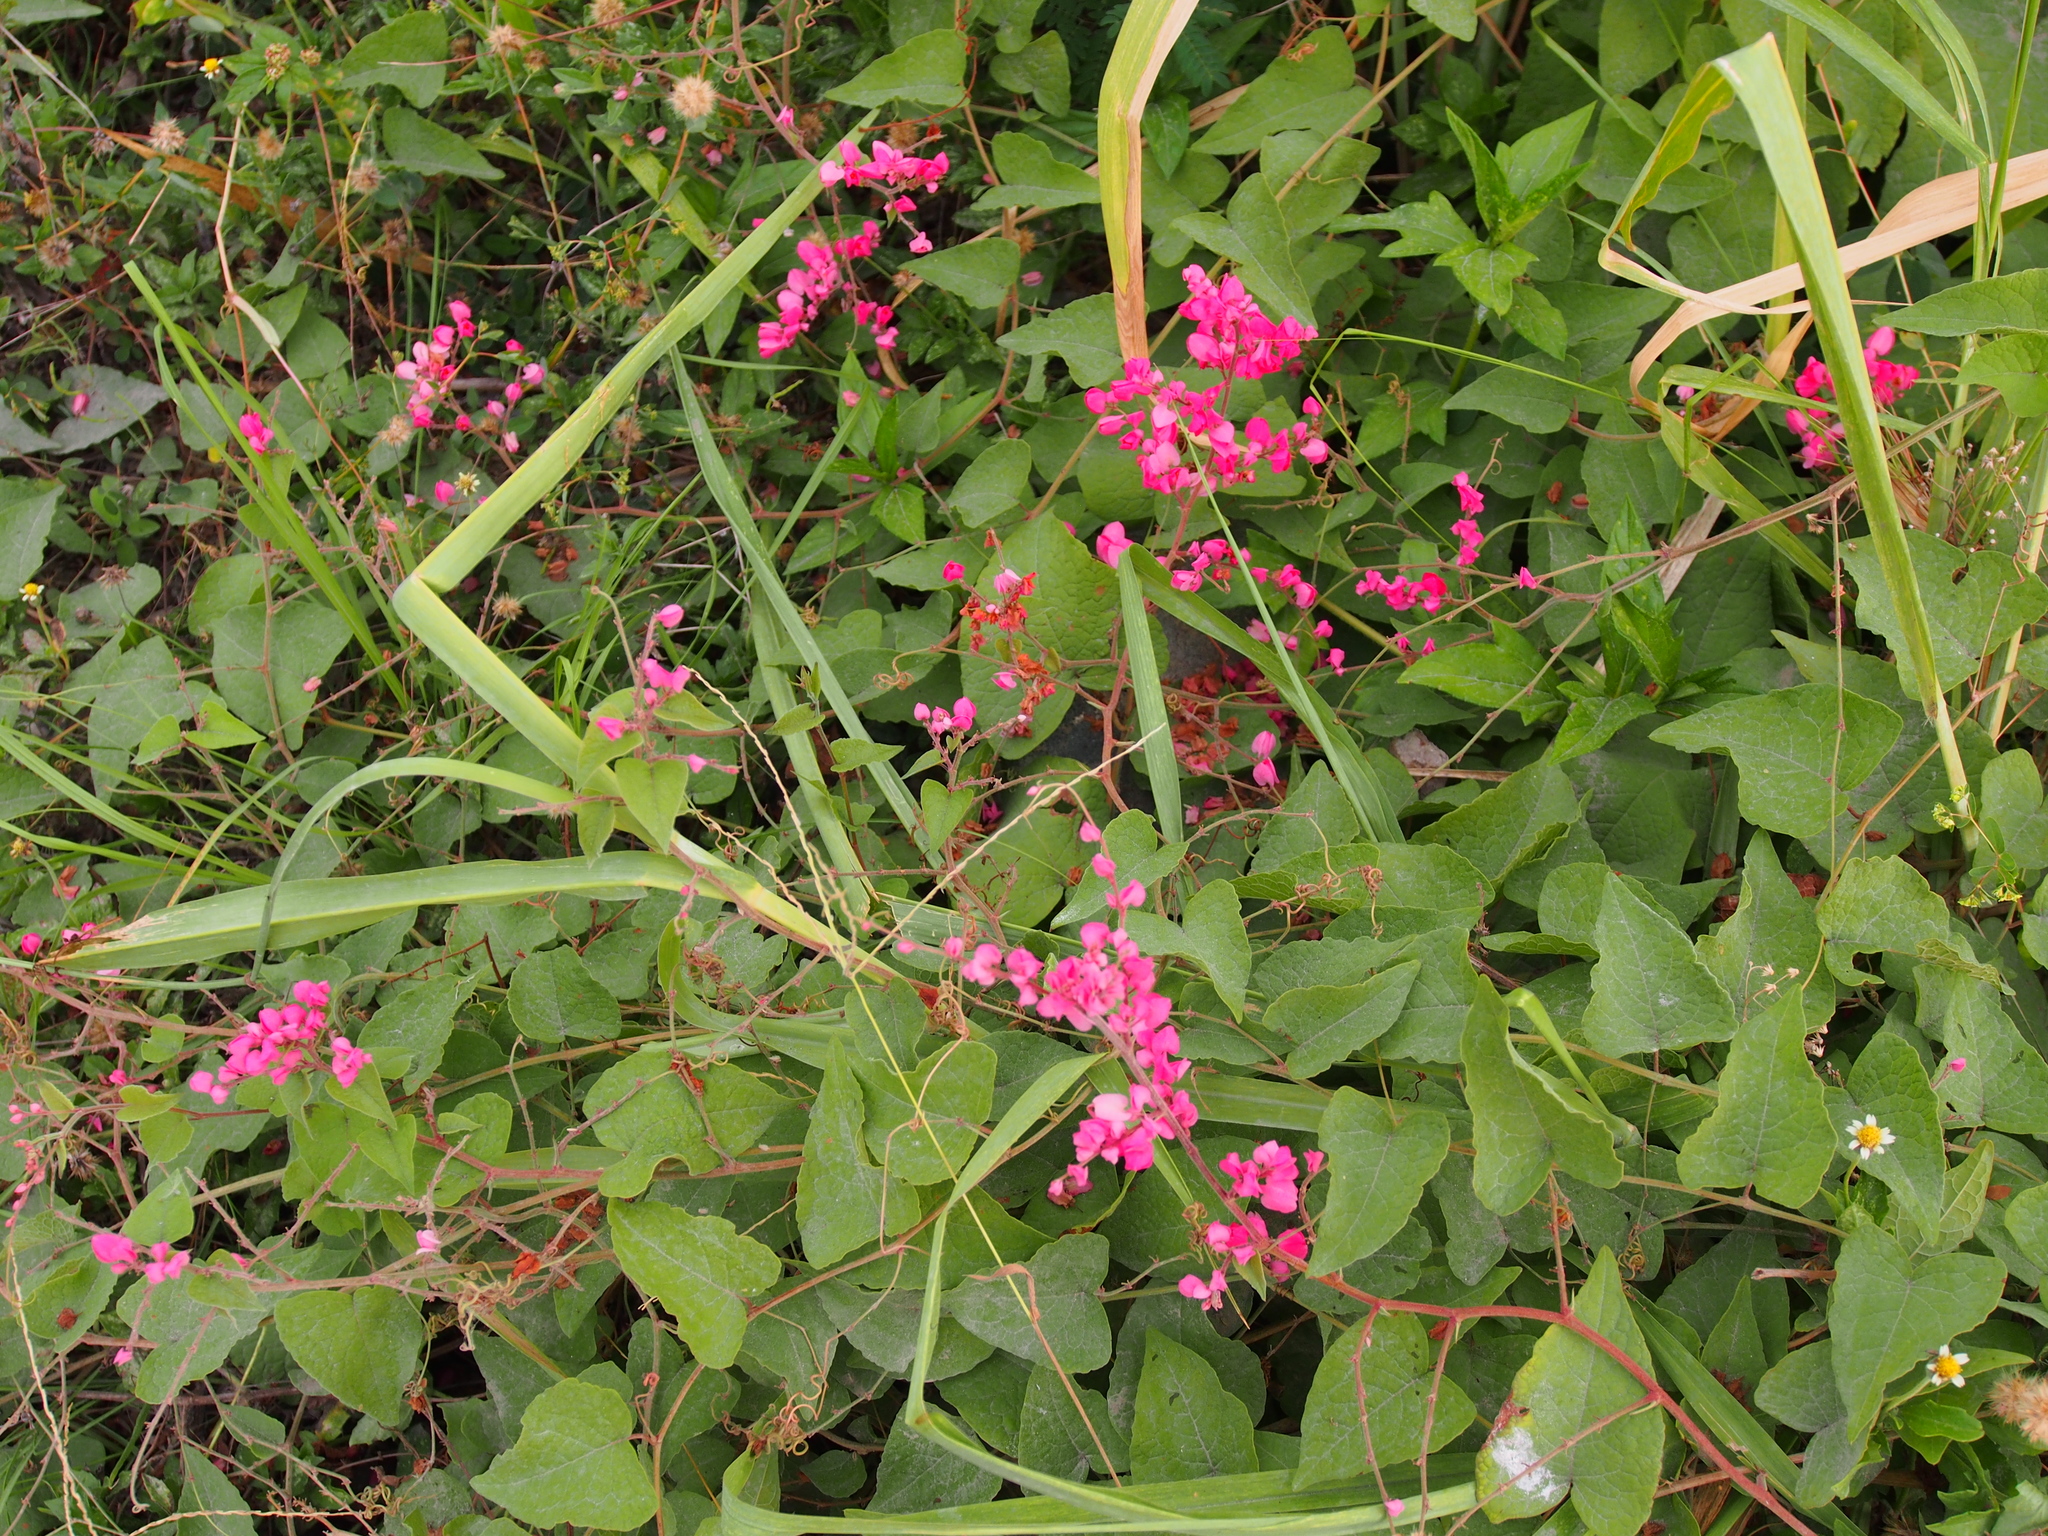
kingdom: Plantae
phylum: Tracheophyta
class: Magnoliopsida
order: Caryophyllales
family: Polygonaceae
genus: Antigonon
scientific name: Antigonon leptopus
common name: Coral vine
